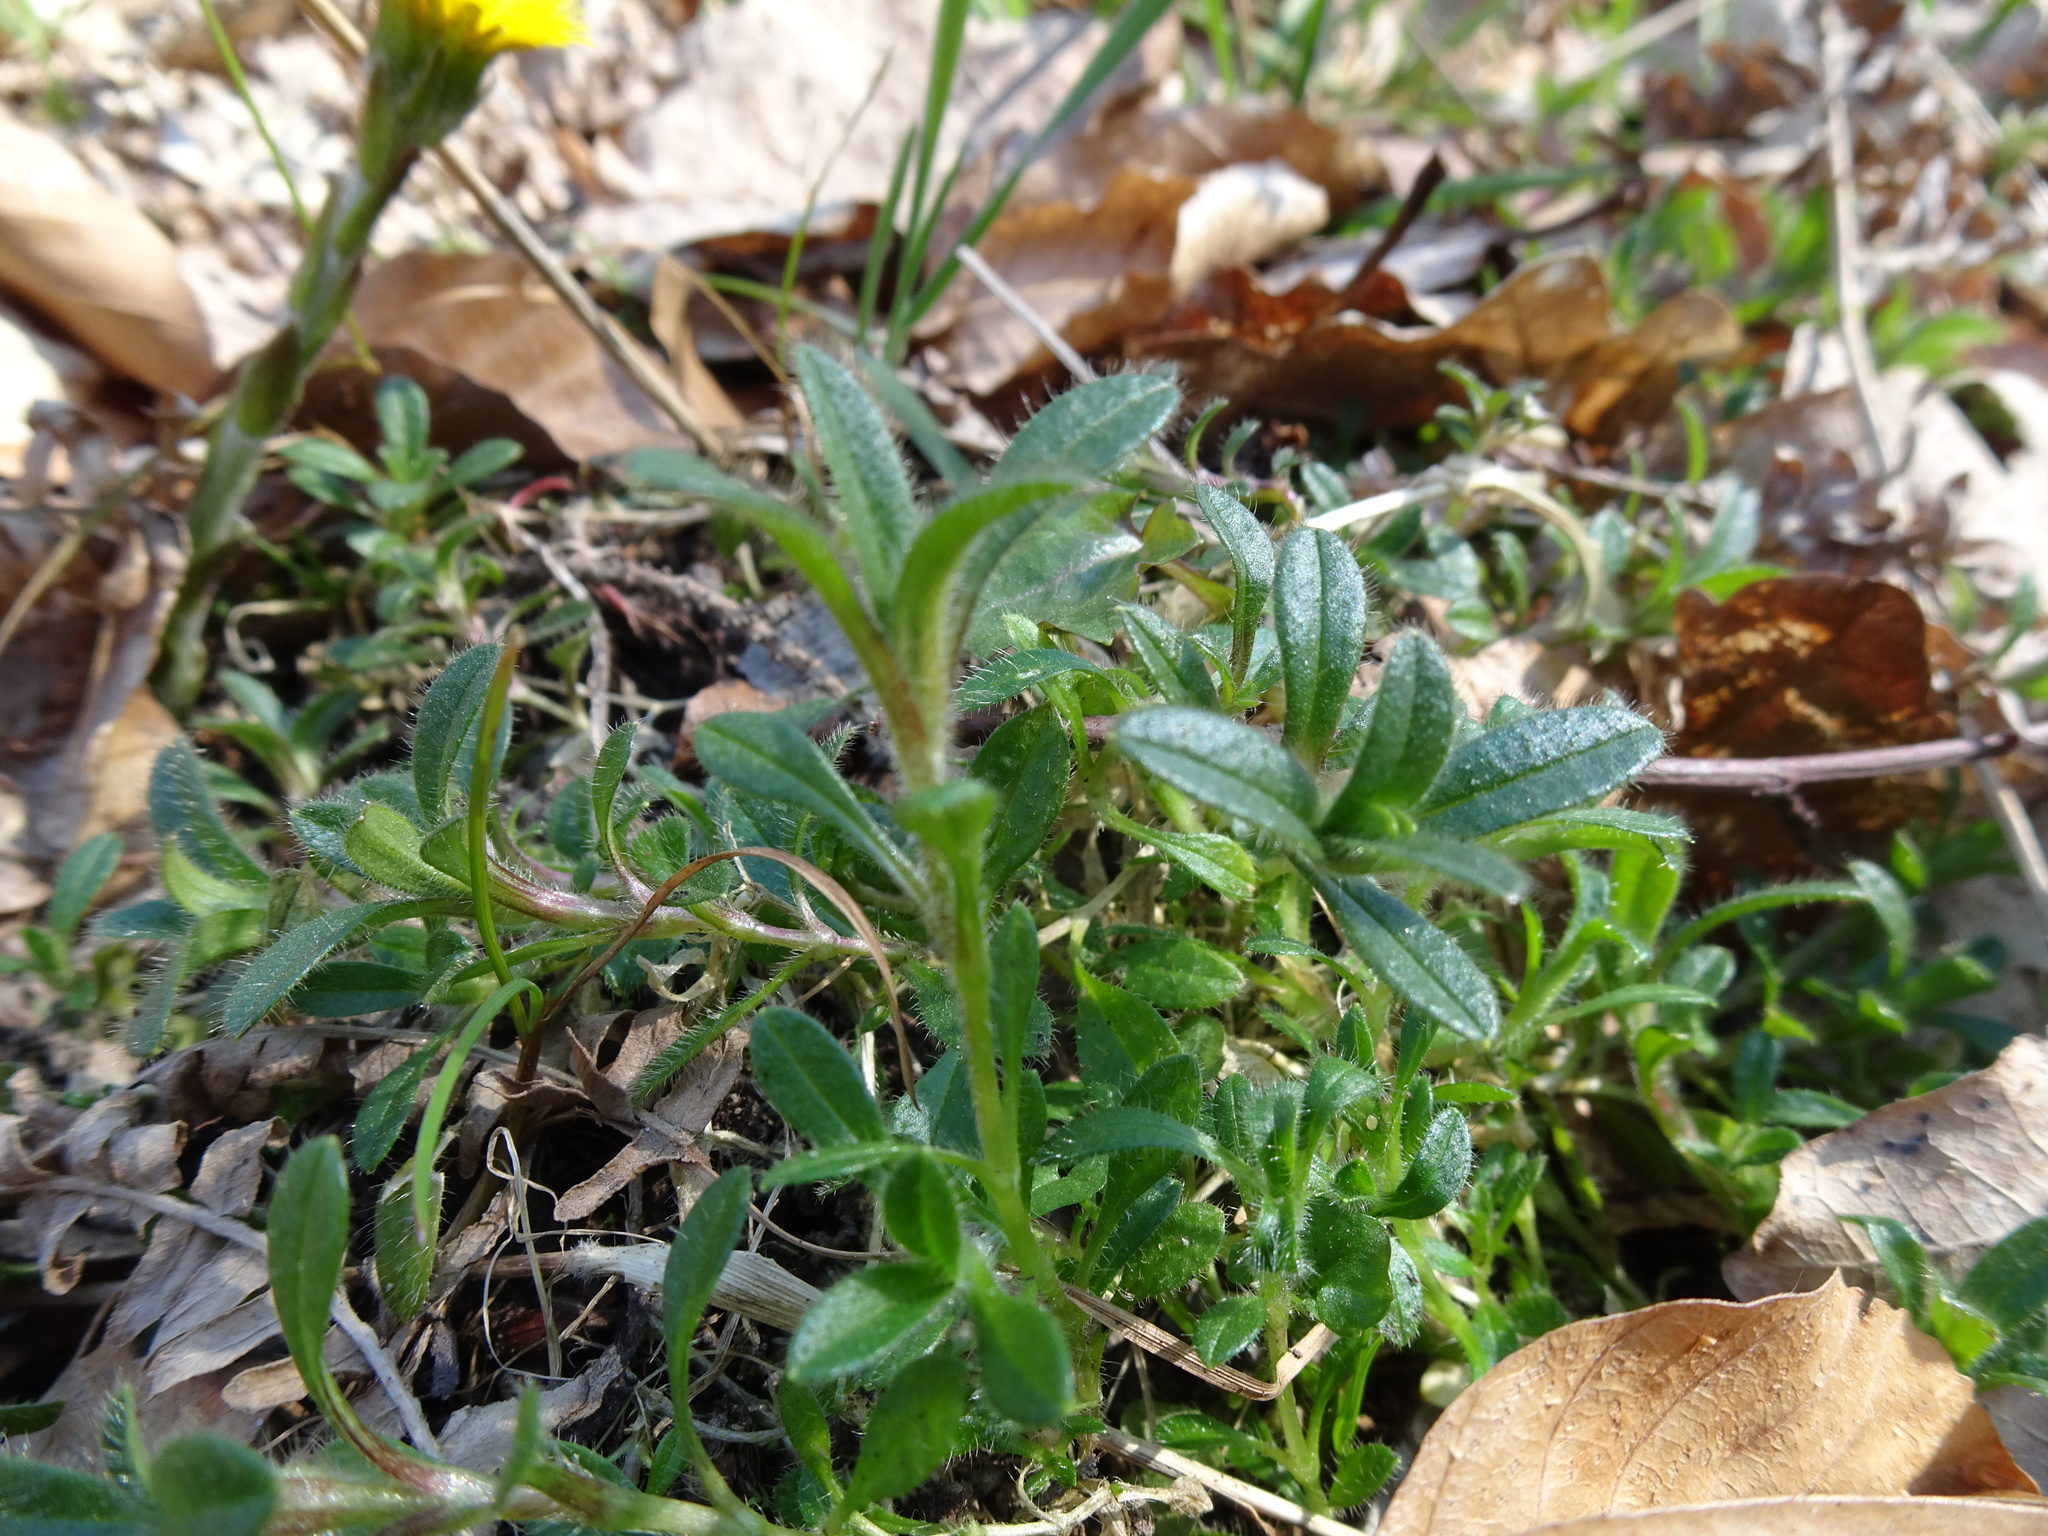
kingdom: Plantae
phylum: Tracheophyta
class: Magnoliopsida
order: Malvales
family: Cistaceae
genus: Helianthemum
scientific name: Helianthemum nummularium
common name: Common rock-rose
